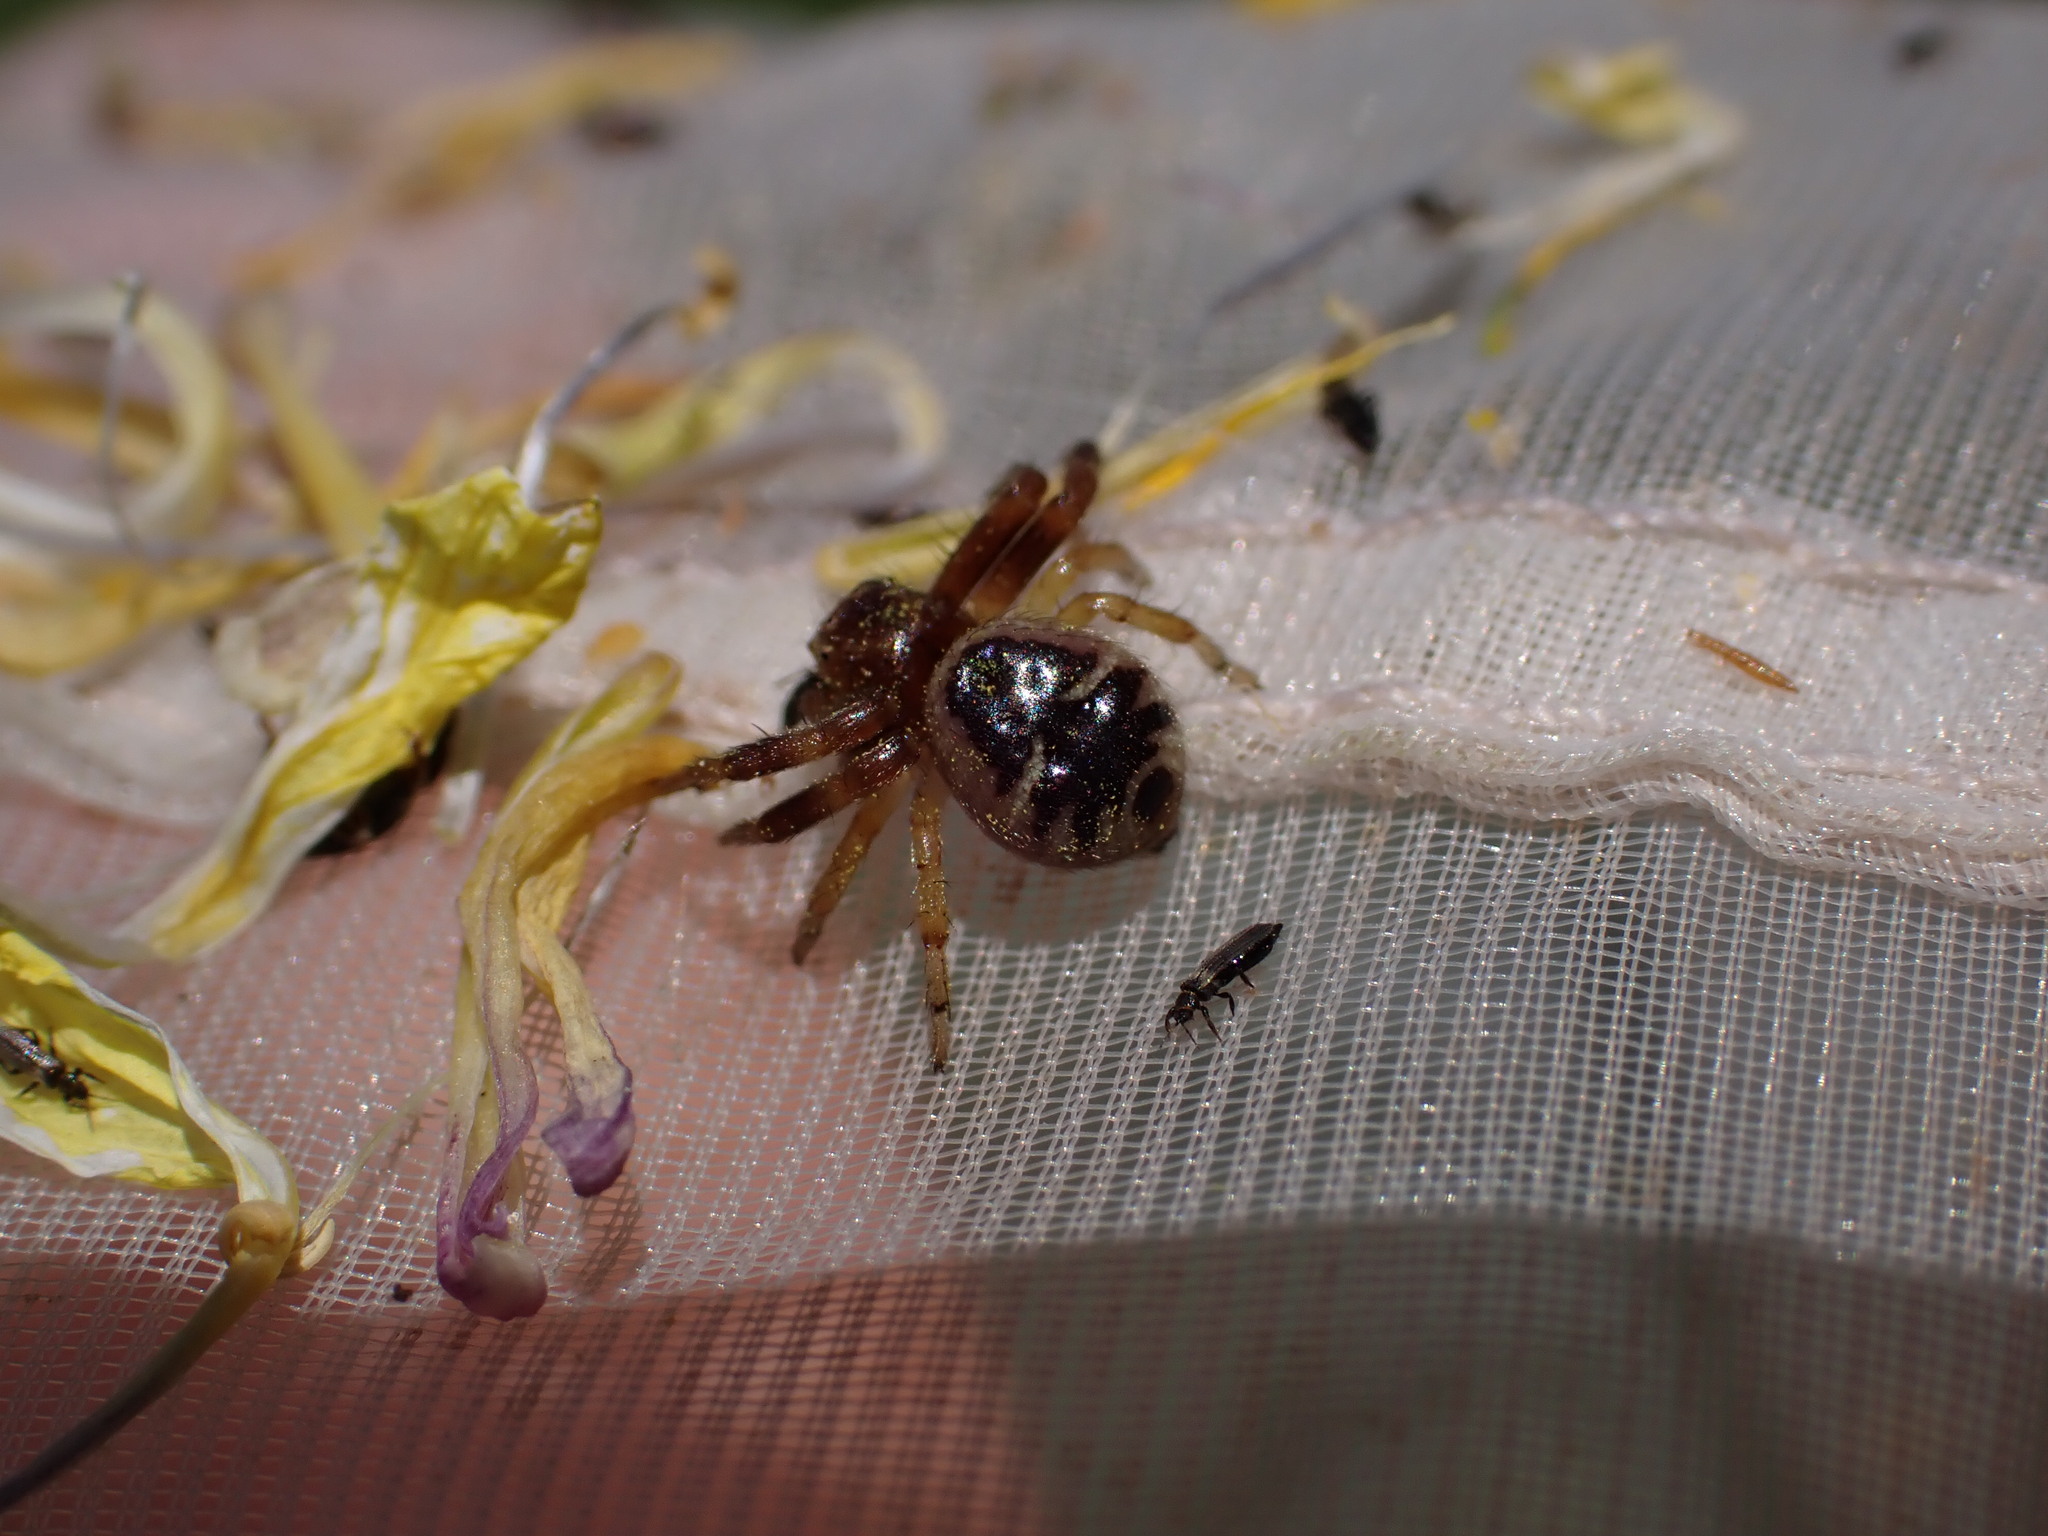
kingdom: Animalia
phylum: Arthropoda
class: Arachnida
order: Araneae
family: Thomisidae
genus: Synema
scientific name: Synema globosum
